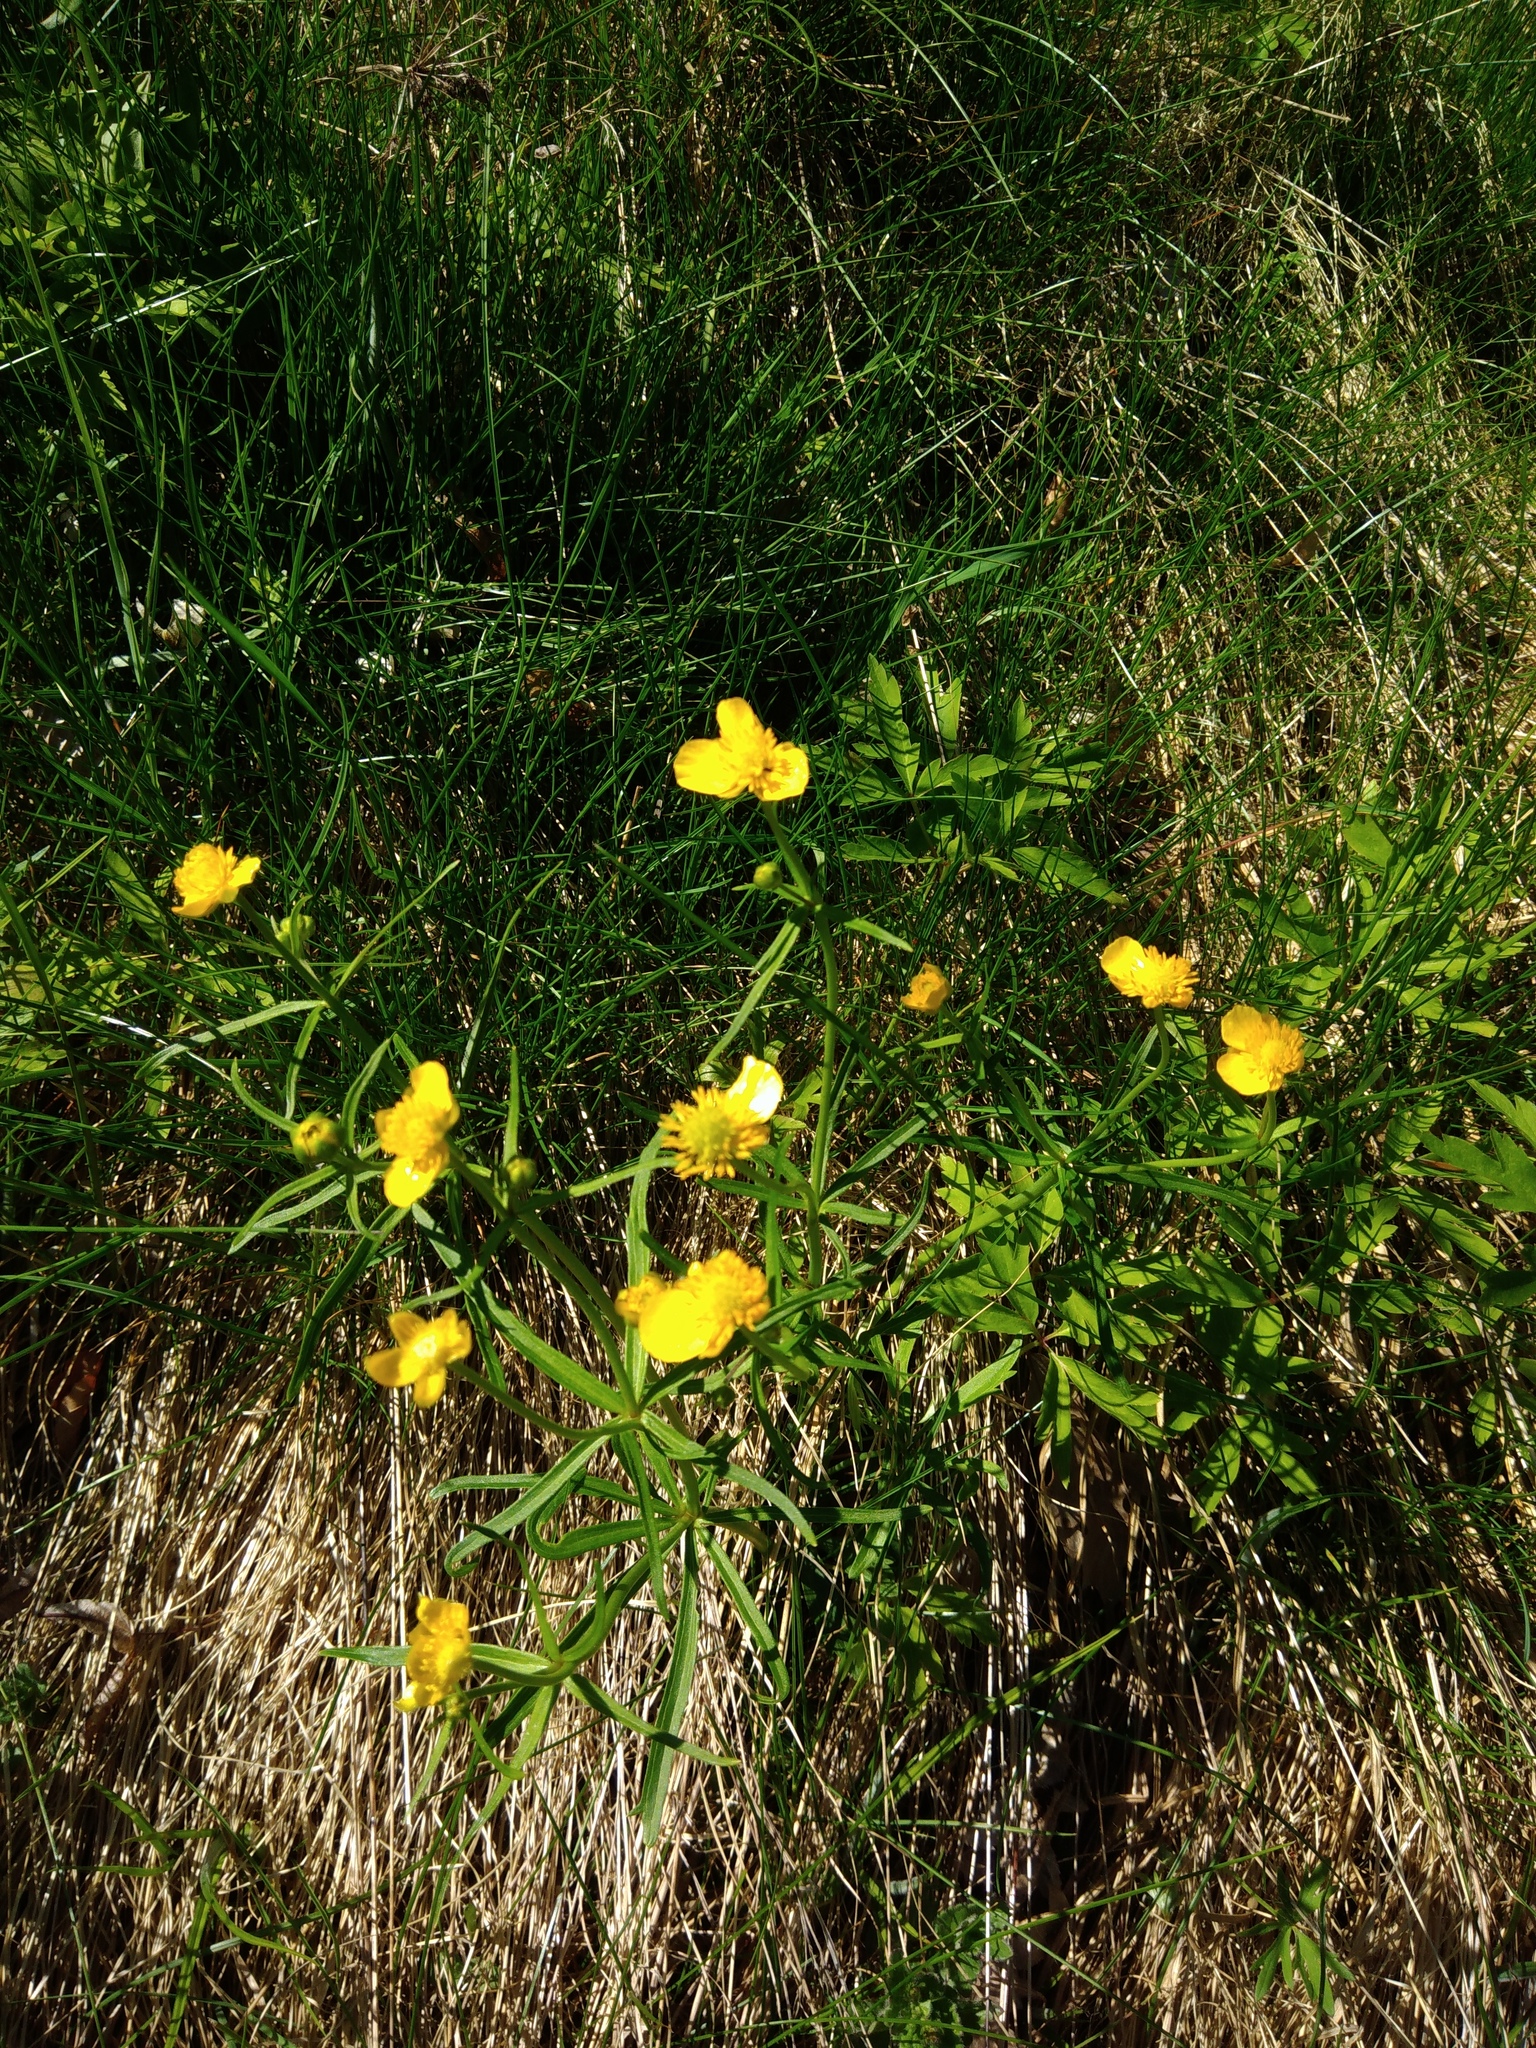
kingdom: Plantae
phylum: Tracheophyta
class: Magnoliopsida
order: Ranunculales
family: Ranunculaceae
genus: Ranunculus
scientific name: Ranunculus auricomus
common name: Goldilocks buttercup
